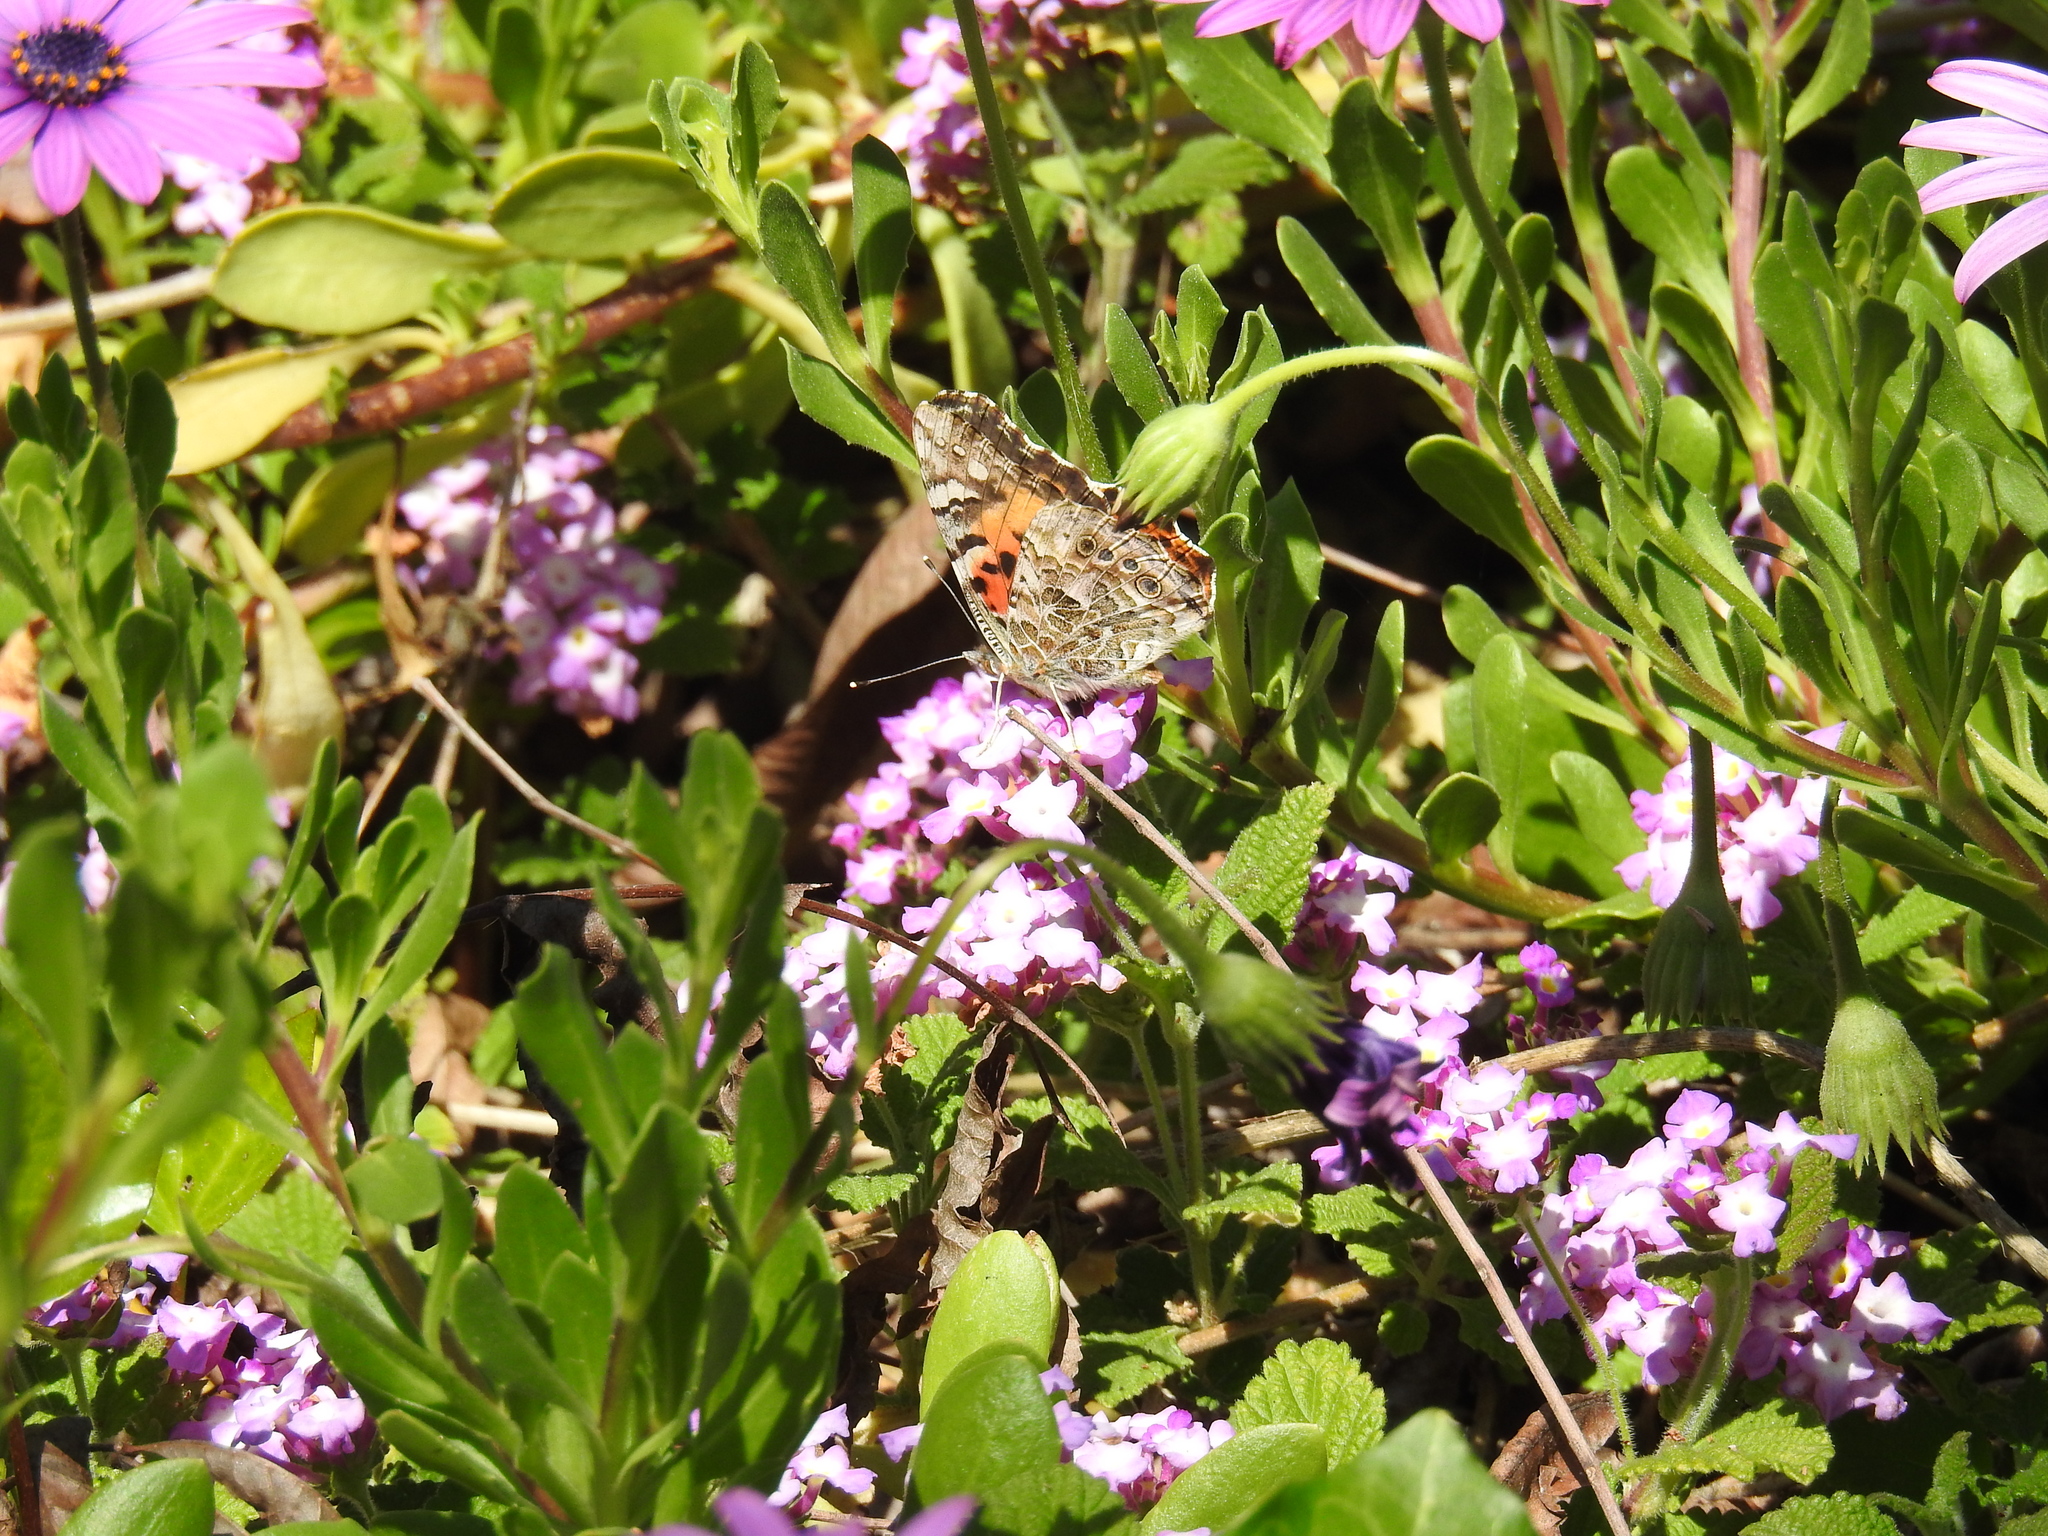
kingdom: Animalia
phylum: Arthropoda
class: Insecta
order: Lepidoptera
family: Nymphalidae
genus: Vanessa
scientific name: Vanessa cardui
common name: Painted lady
